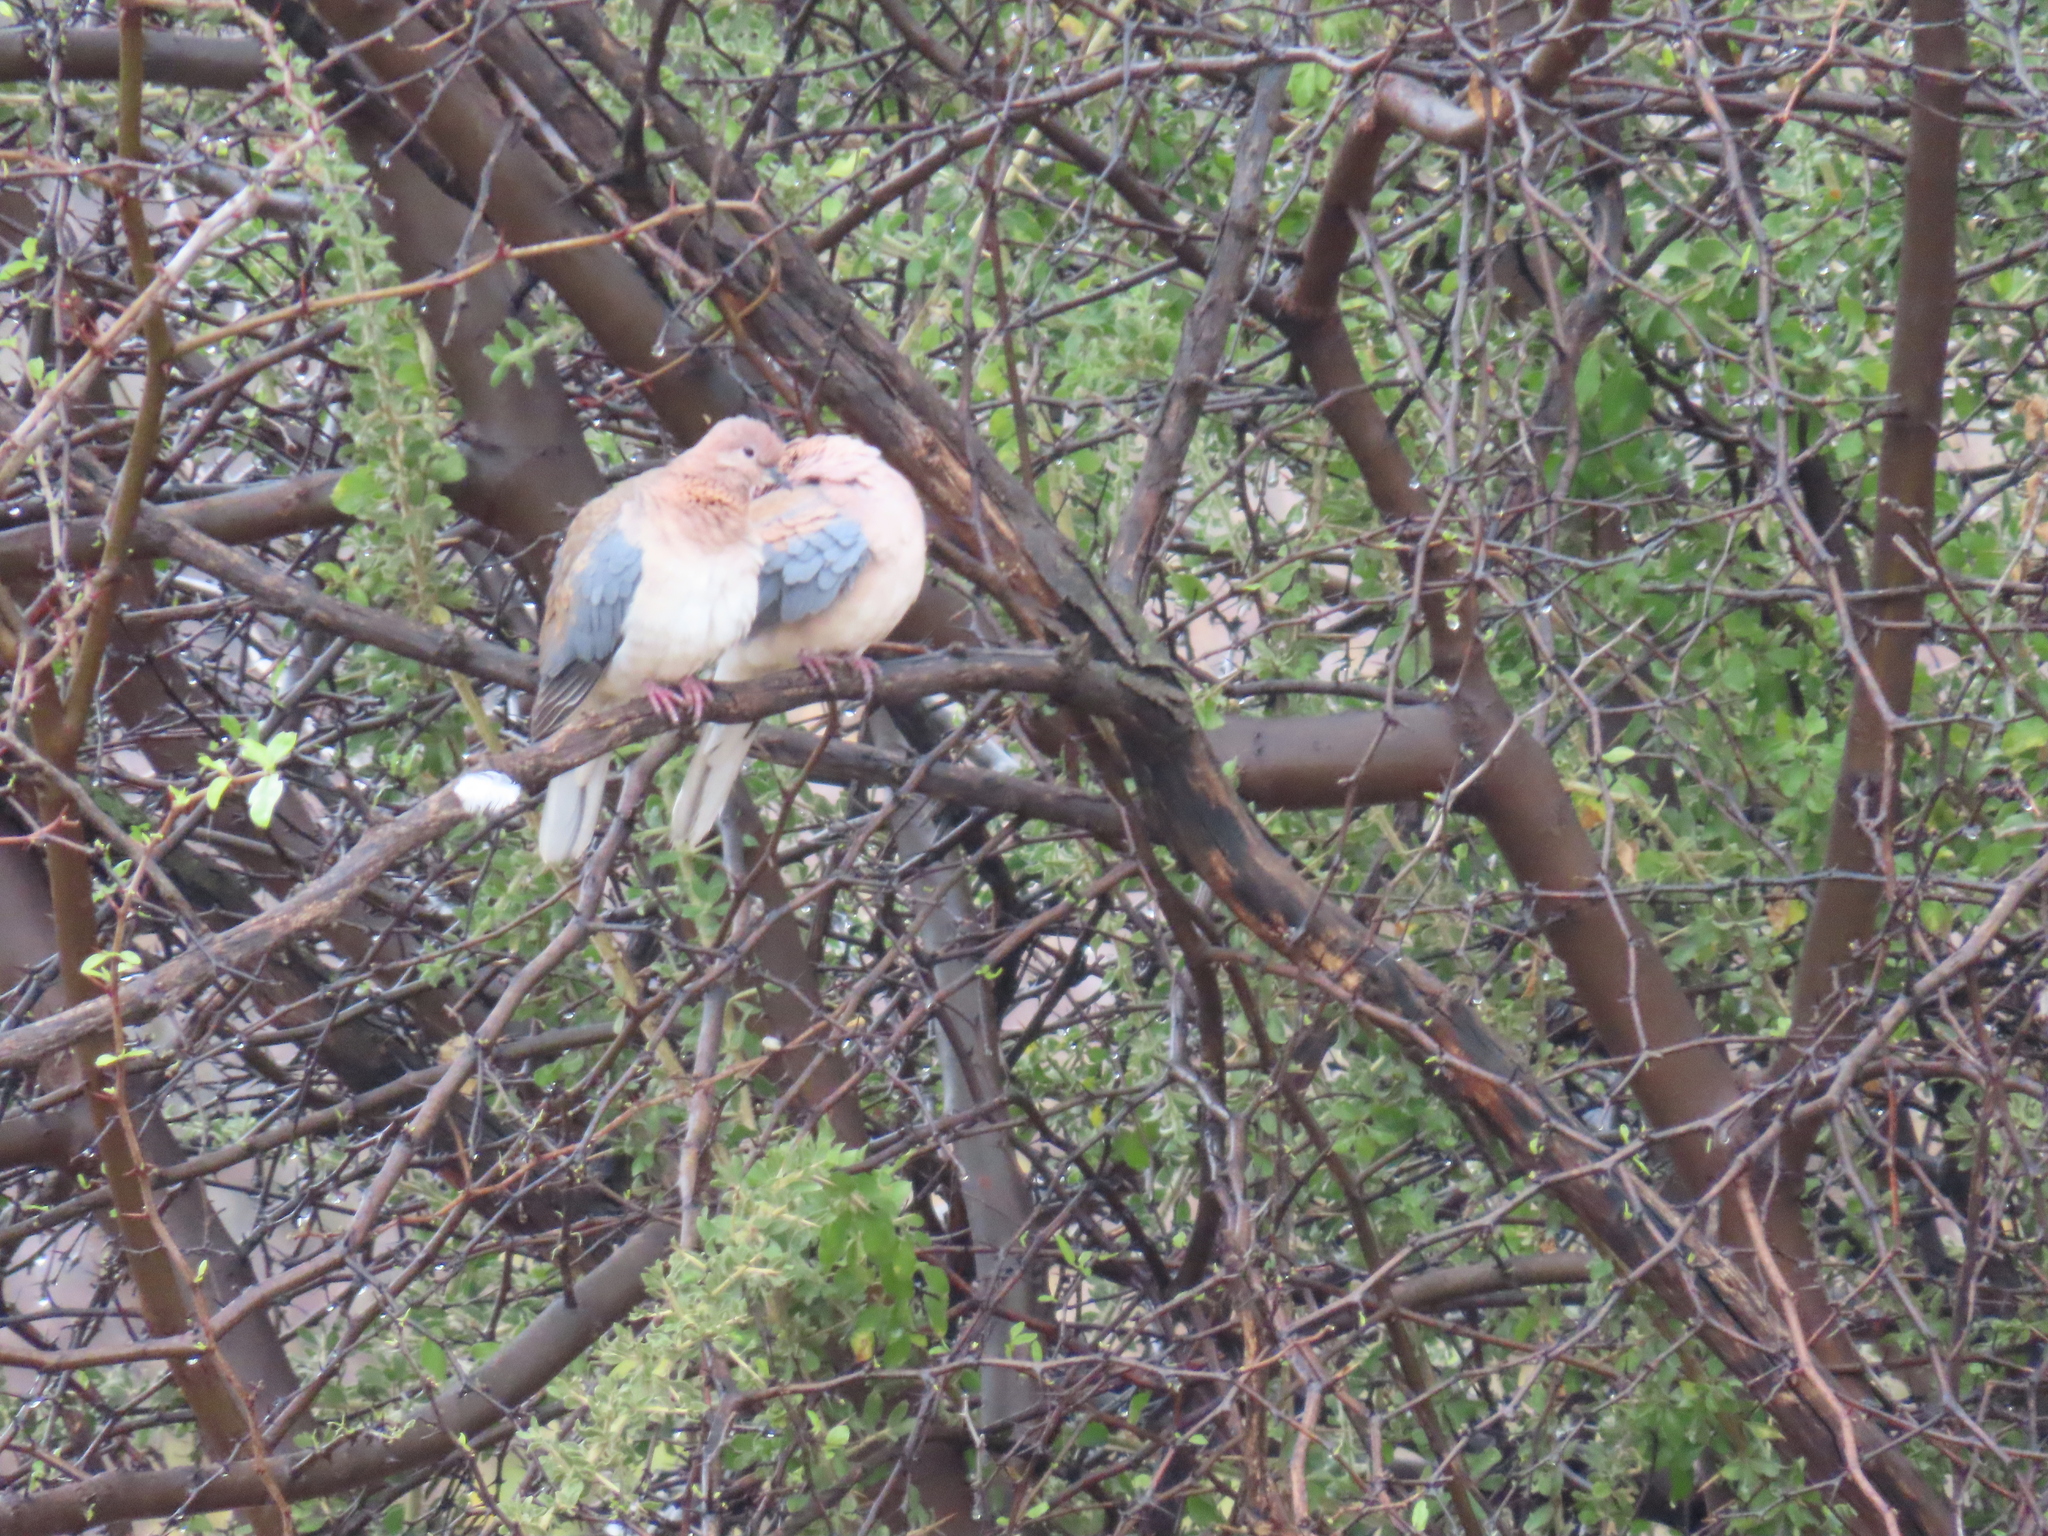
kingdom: Animalia
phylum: Chordata
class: Aves
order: Columbiformes
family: Columbidae
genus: Spilopelia
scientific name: Spilopelia senegalensis
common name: Laughing dove
